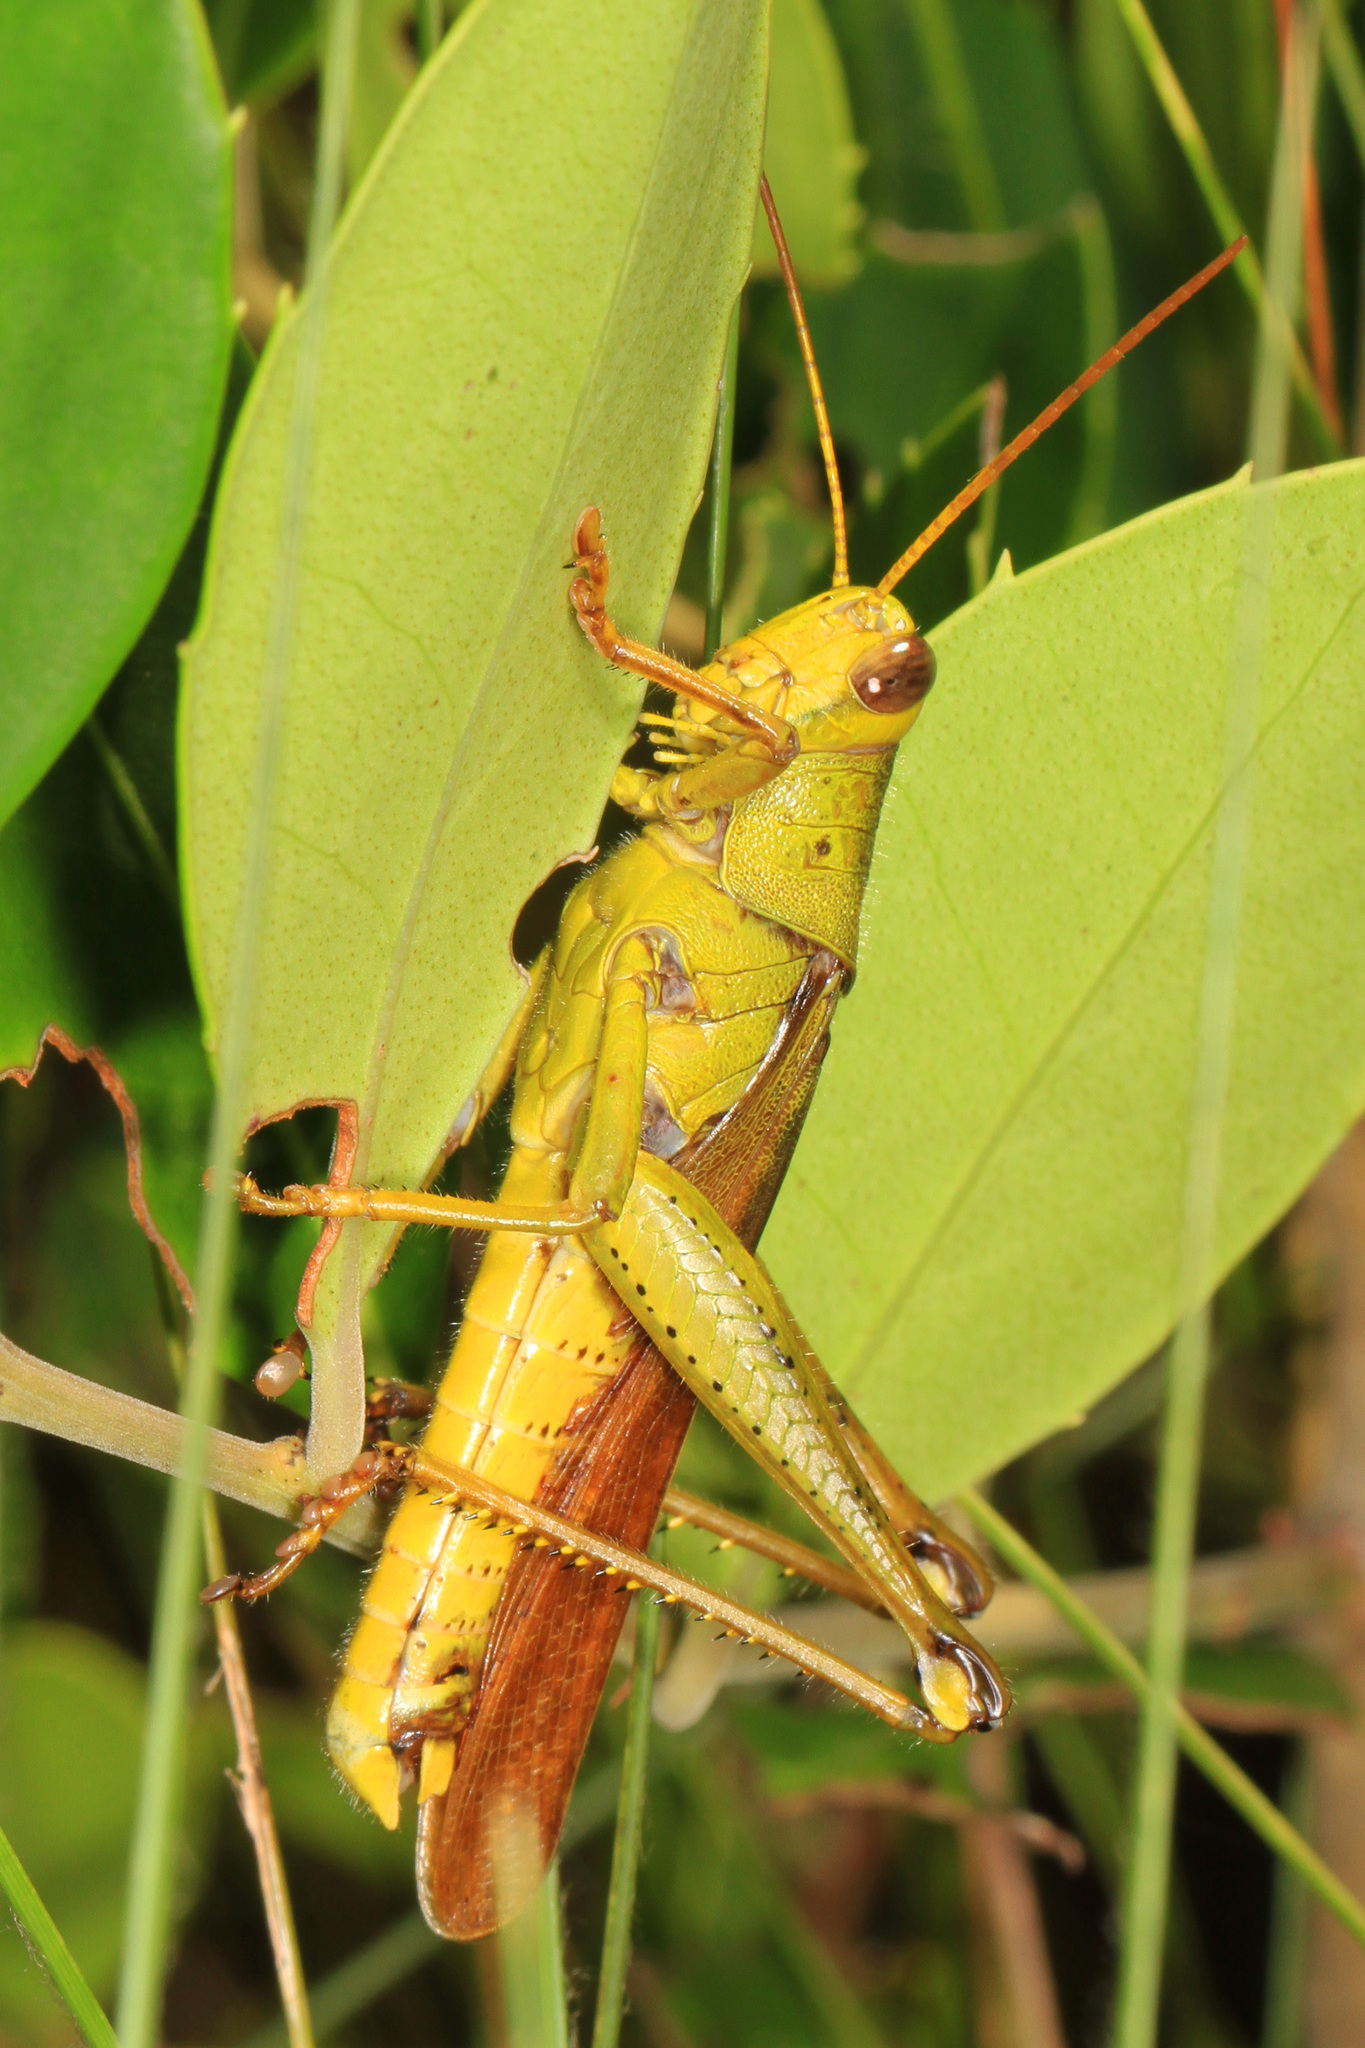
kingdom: Animalia
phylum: Arthropoda
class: Insecta
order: Orthoptera
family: Acrididae
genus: Schistocerca
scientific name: Schistocerca alutacea
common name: Leather-colored bird locust
